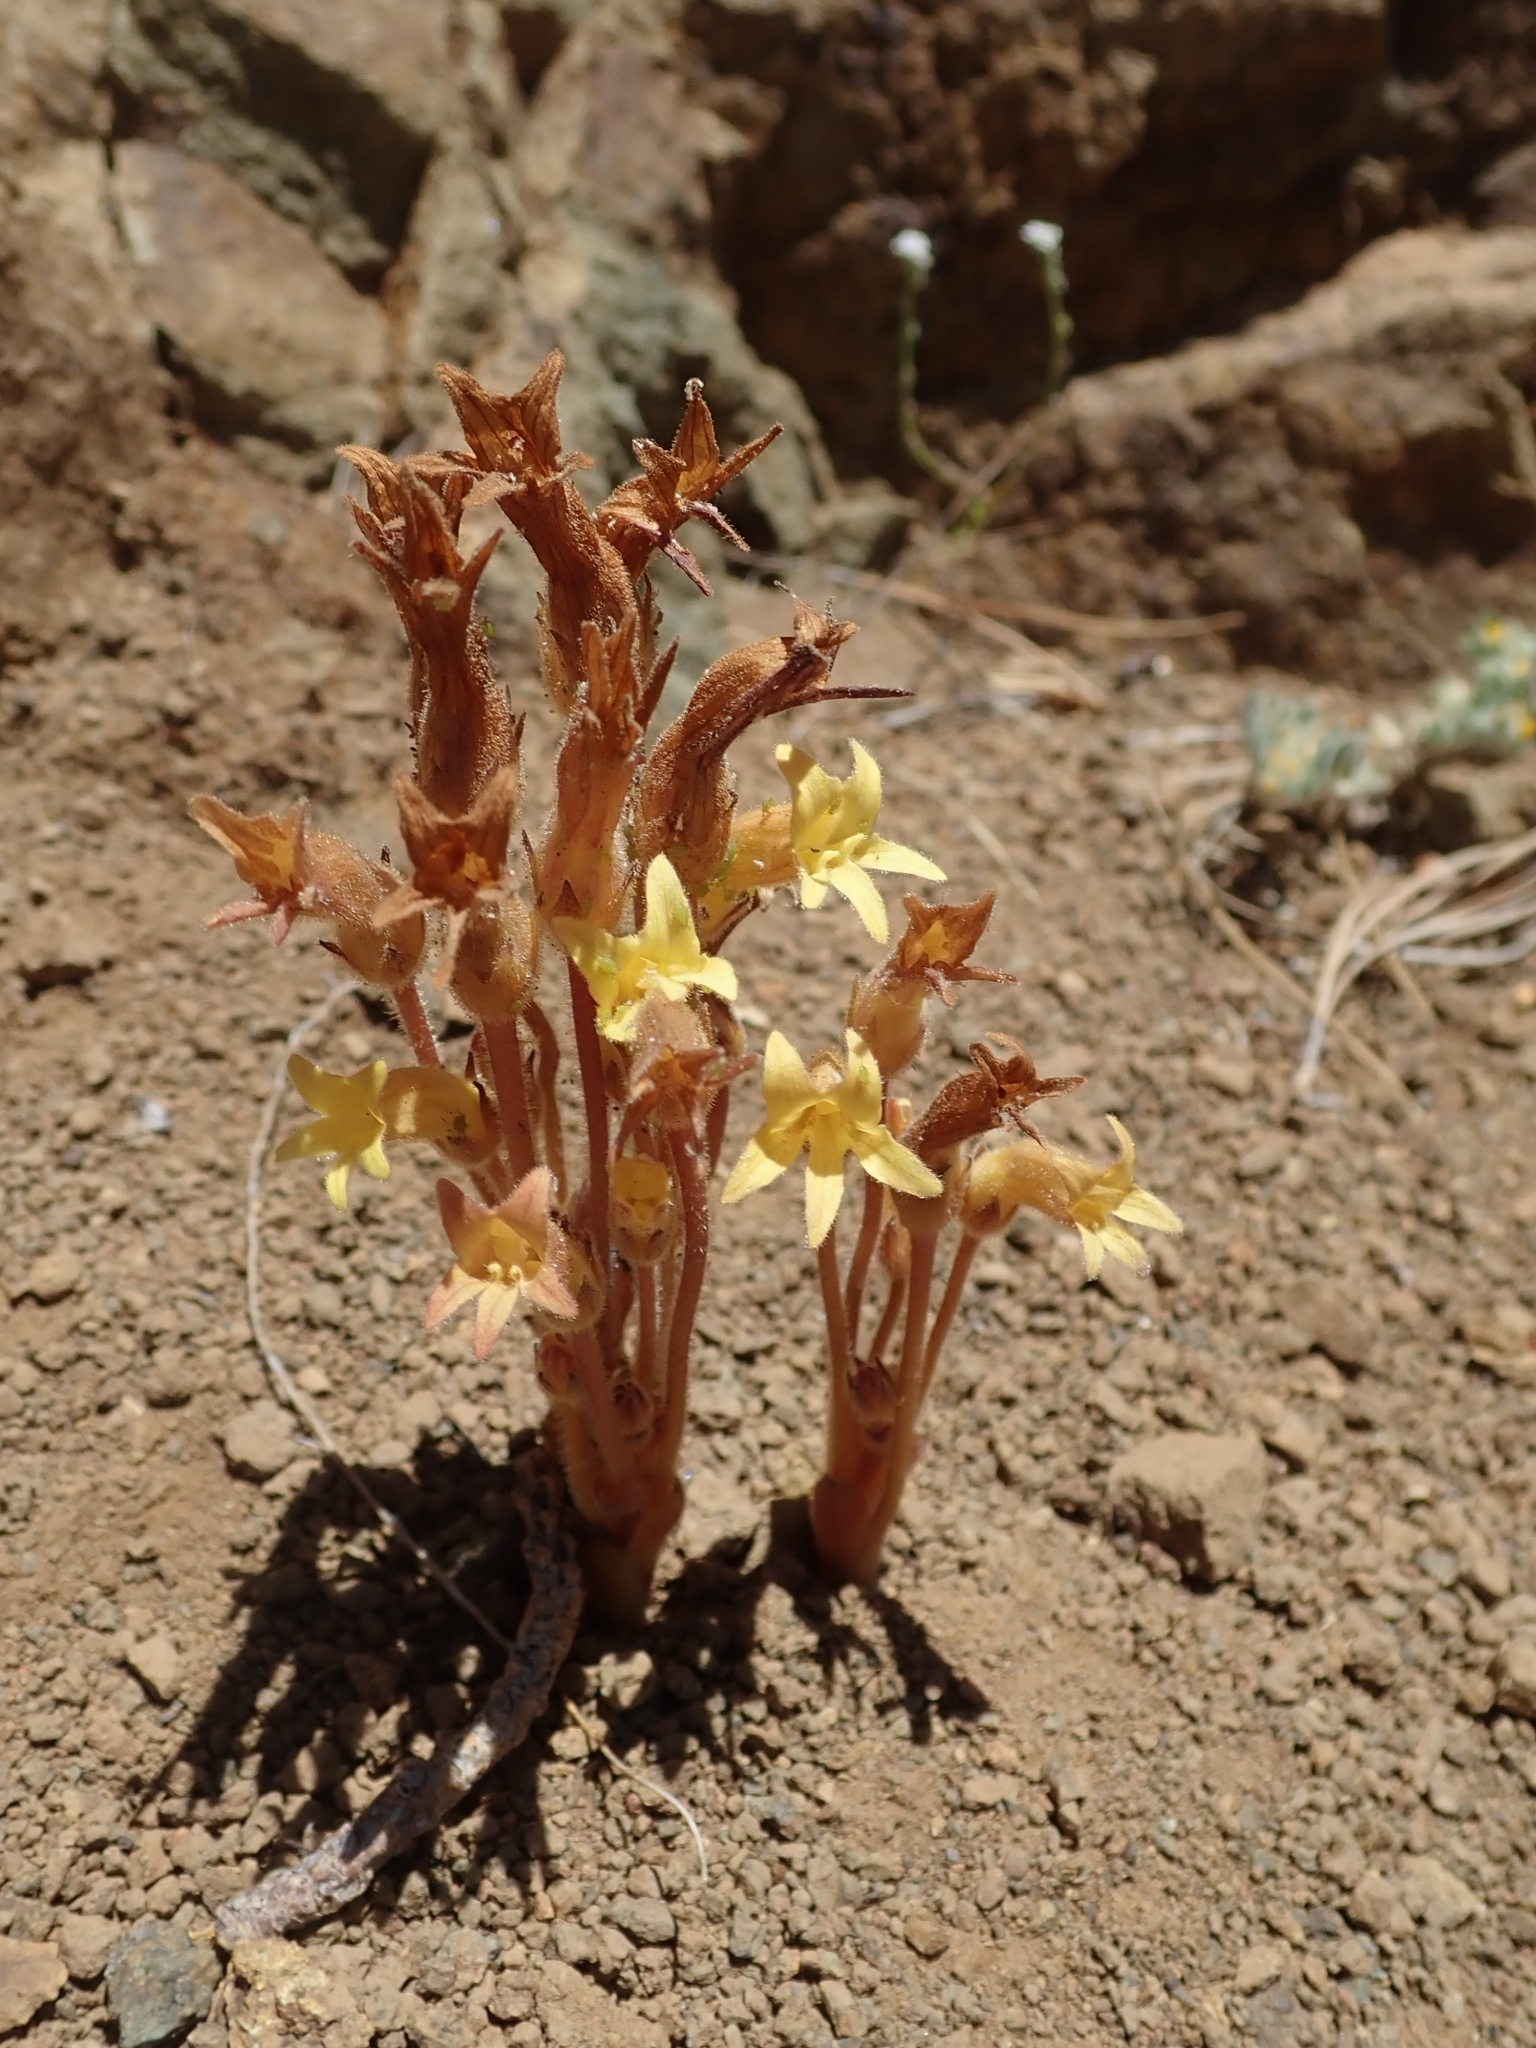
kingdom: Plantae
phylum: Tracheophyta
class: Magnoliopsida
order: Lamiales
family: Orobanchaceae
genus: Aphyllon
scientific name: Aphyllon franciscanum
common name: San francisco broomrape
